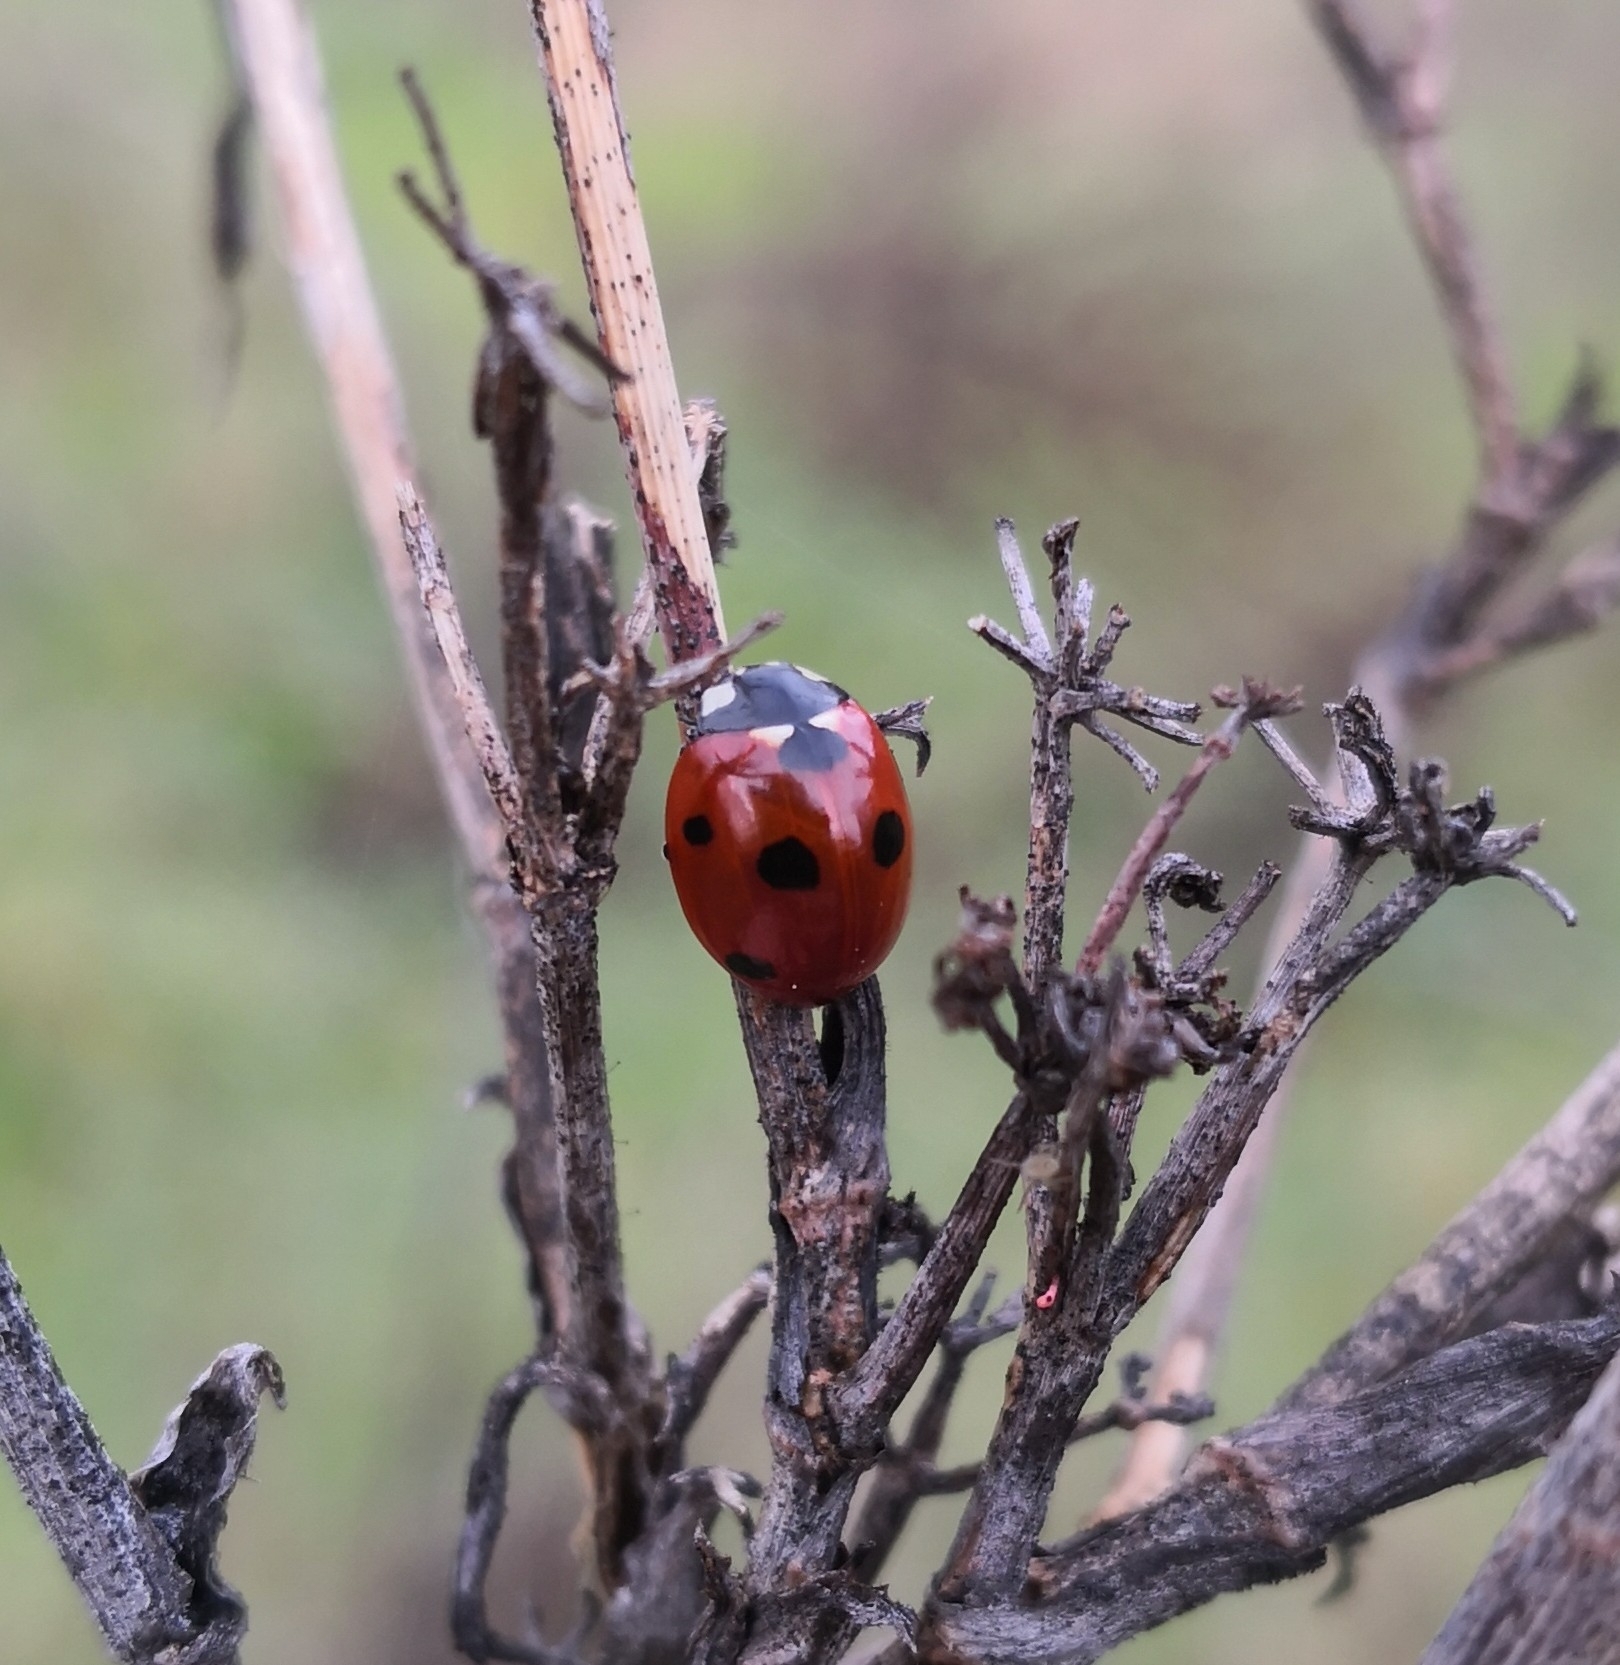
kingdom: Animalia
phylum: Arthropoda
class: Insecta
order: Coleoptera
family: Coccinellidae
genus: Coccinella
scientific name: Coccinella septempunctata
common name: Sevenspotted lady beetle
